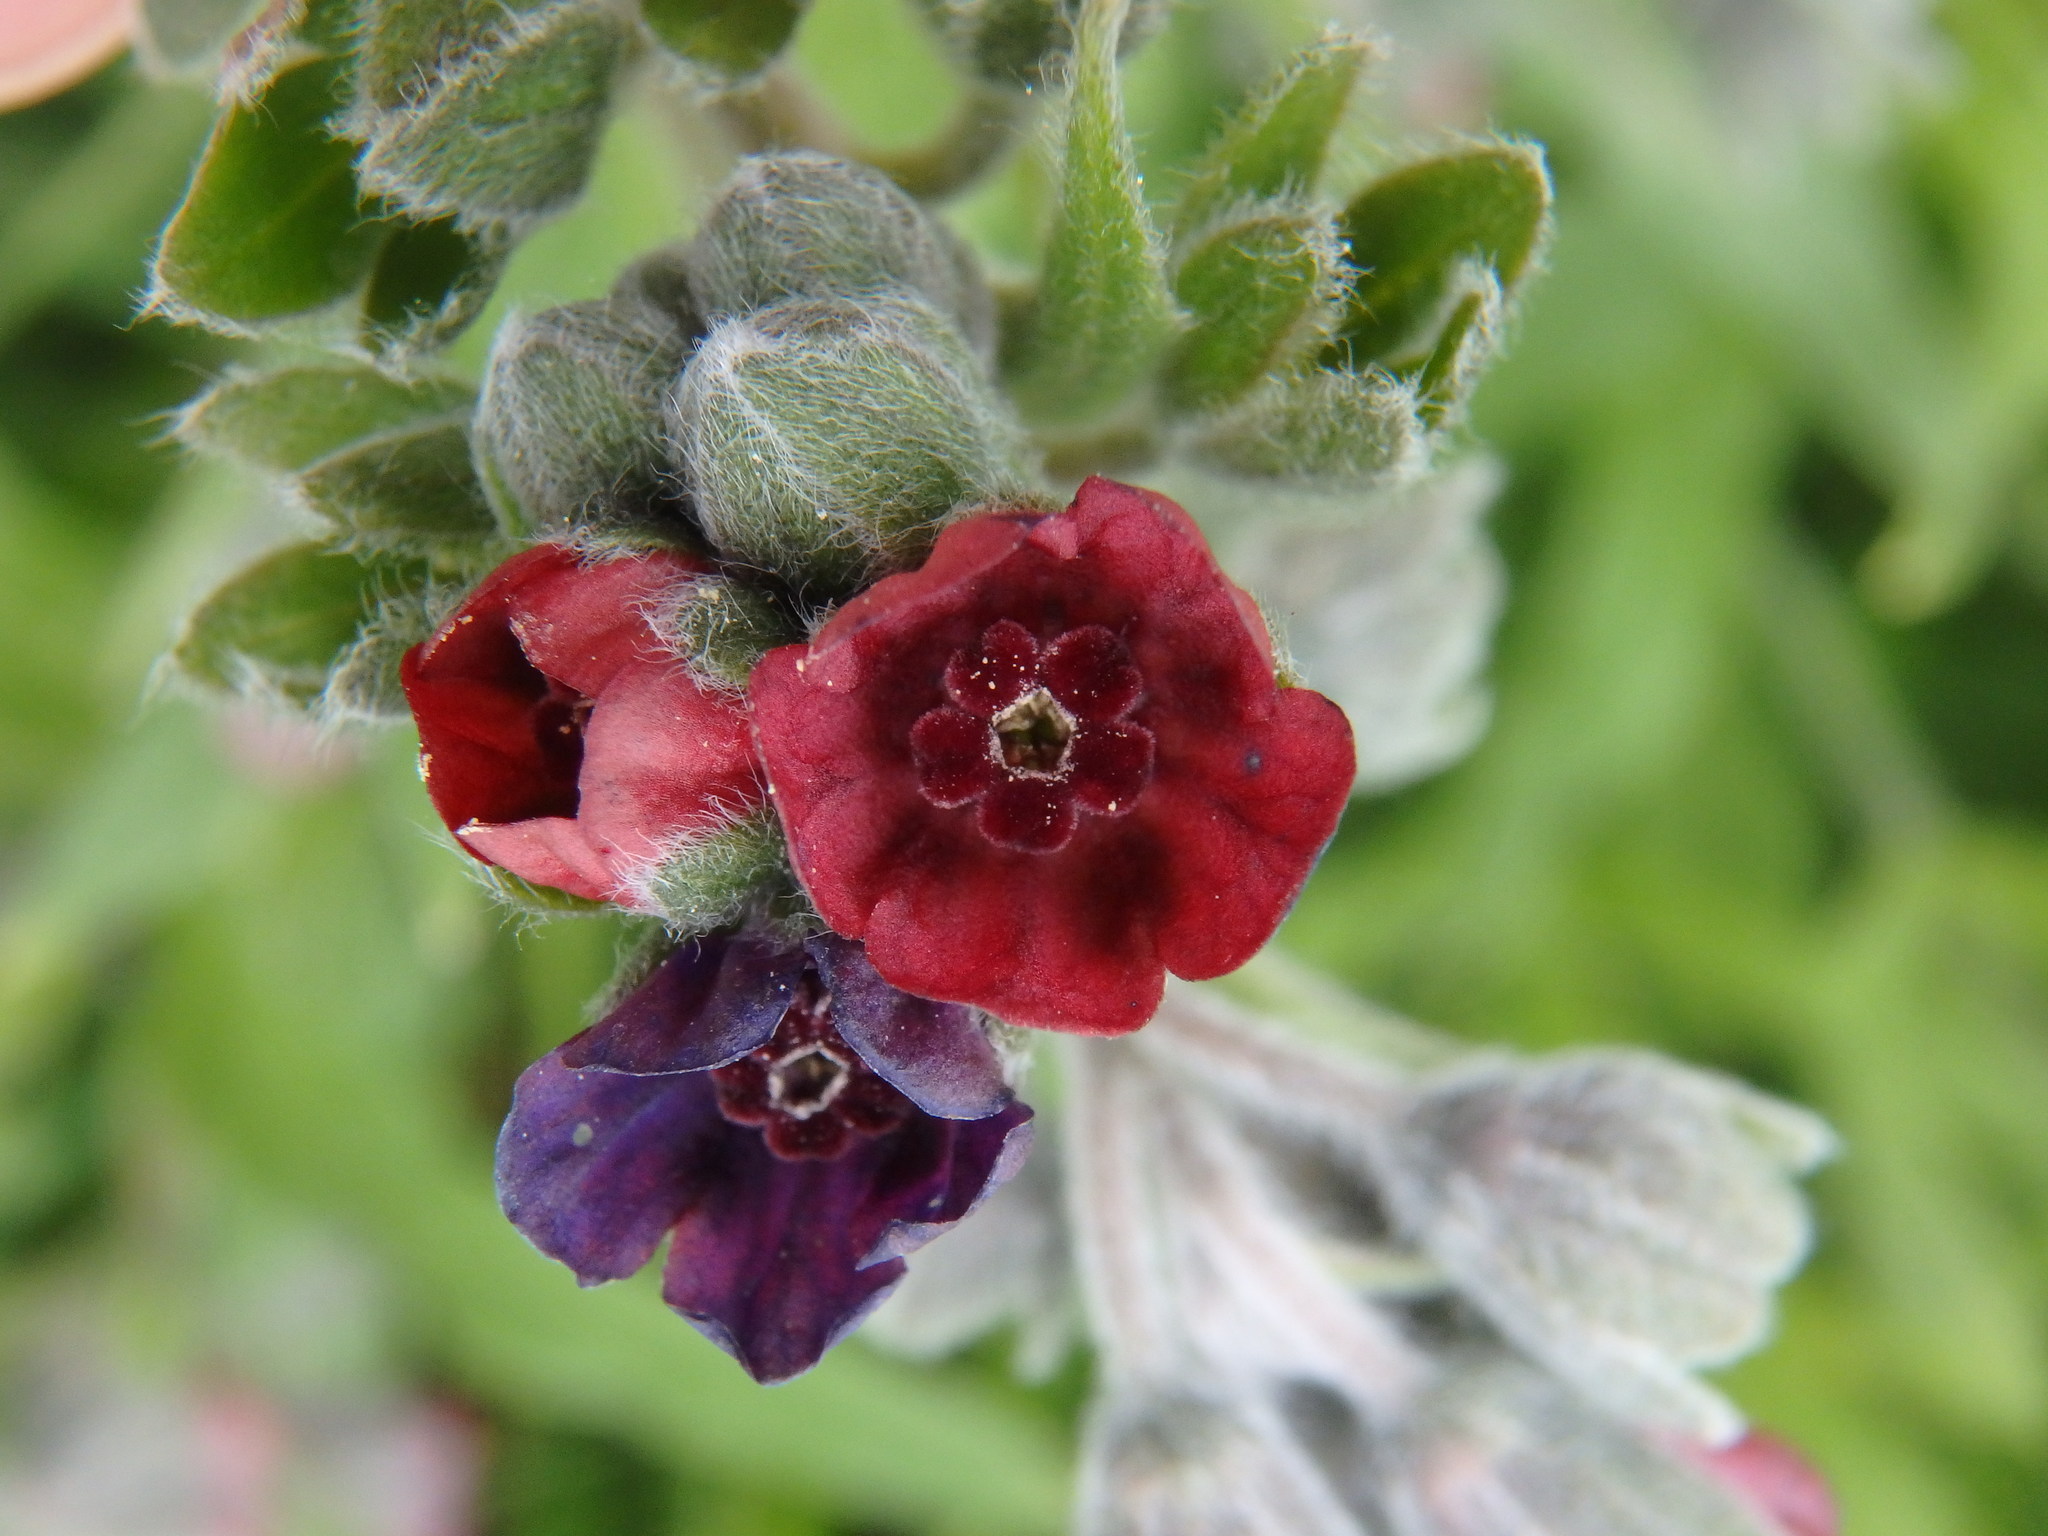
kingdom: Plantae
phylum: Tracheophyta
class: Magnoliopsida
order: Boraginales
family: Boraginaceae
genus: Cynoglossum
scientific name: Cynoglossum officinale
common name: Hound's-tongue
